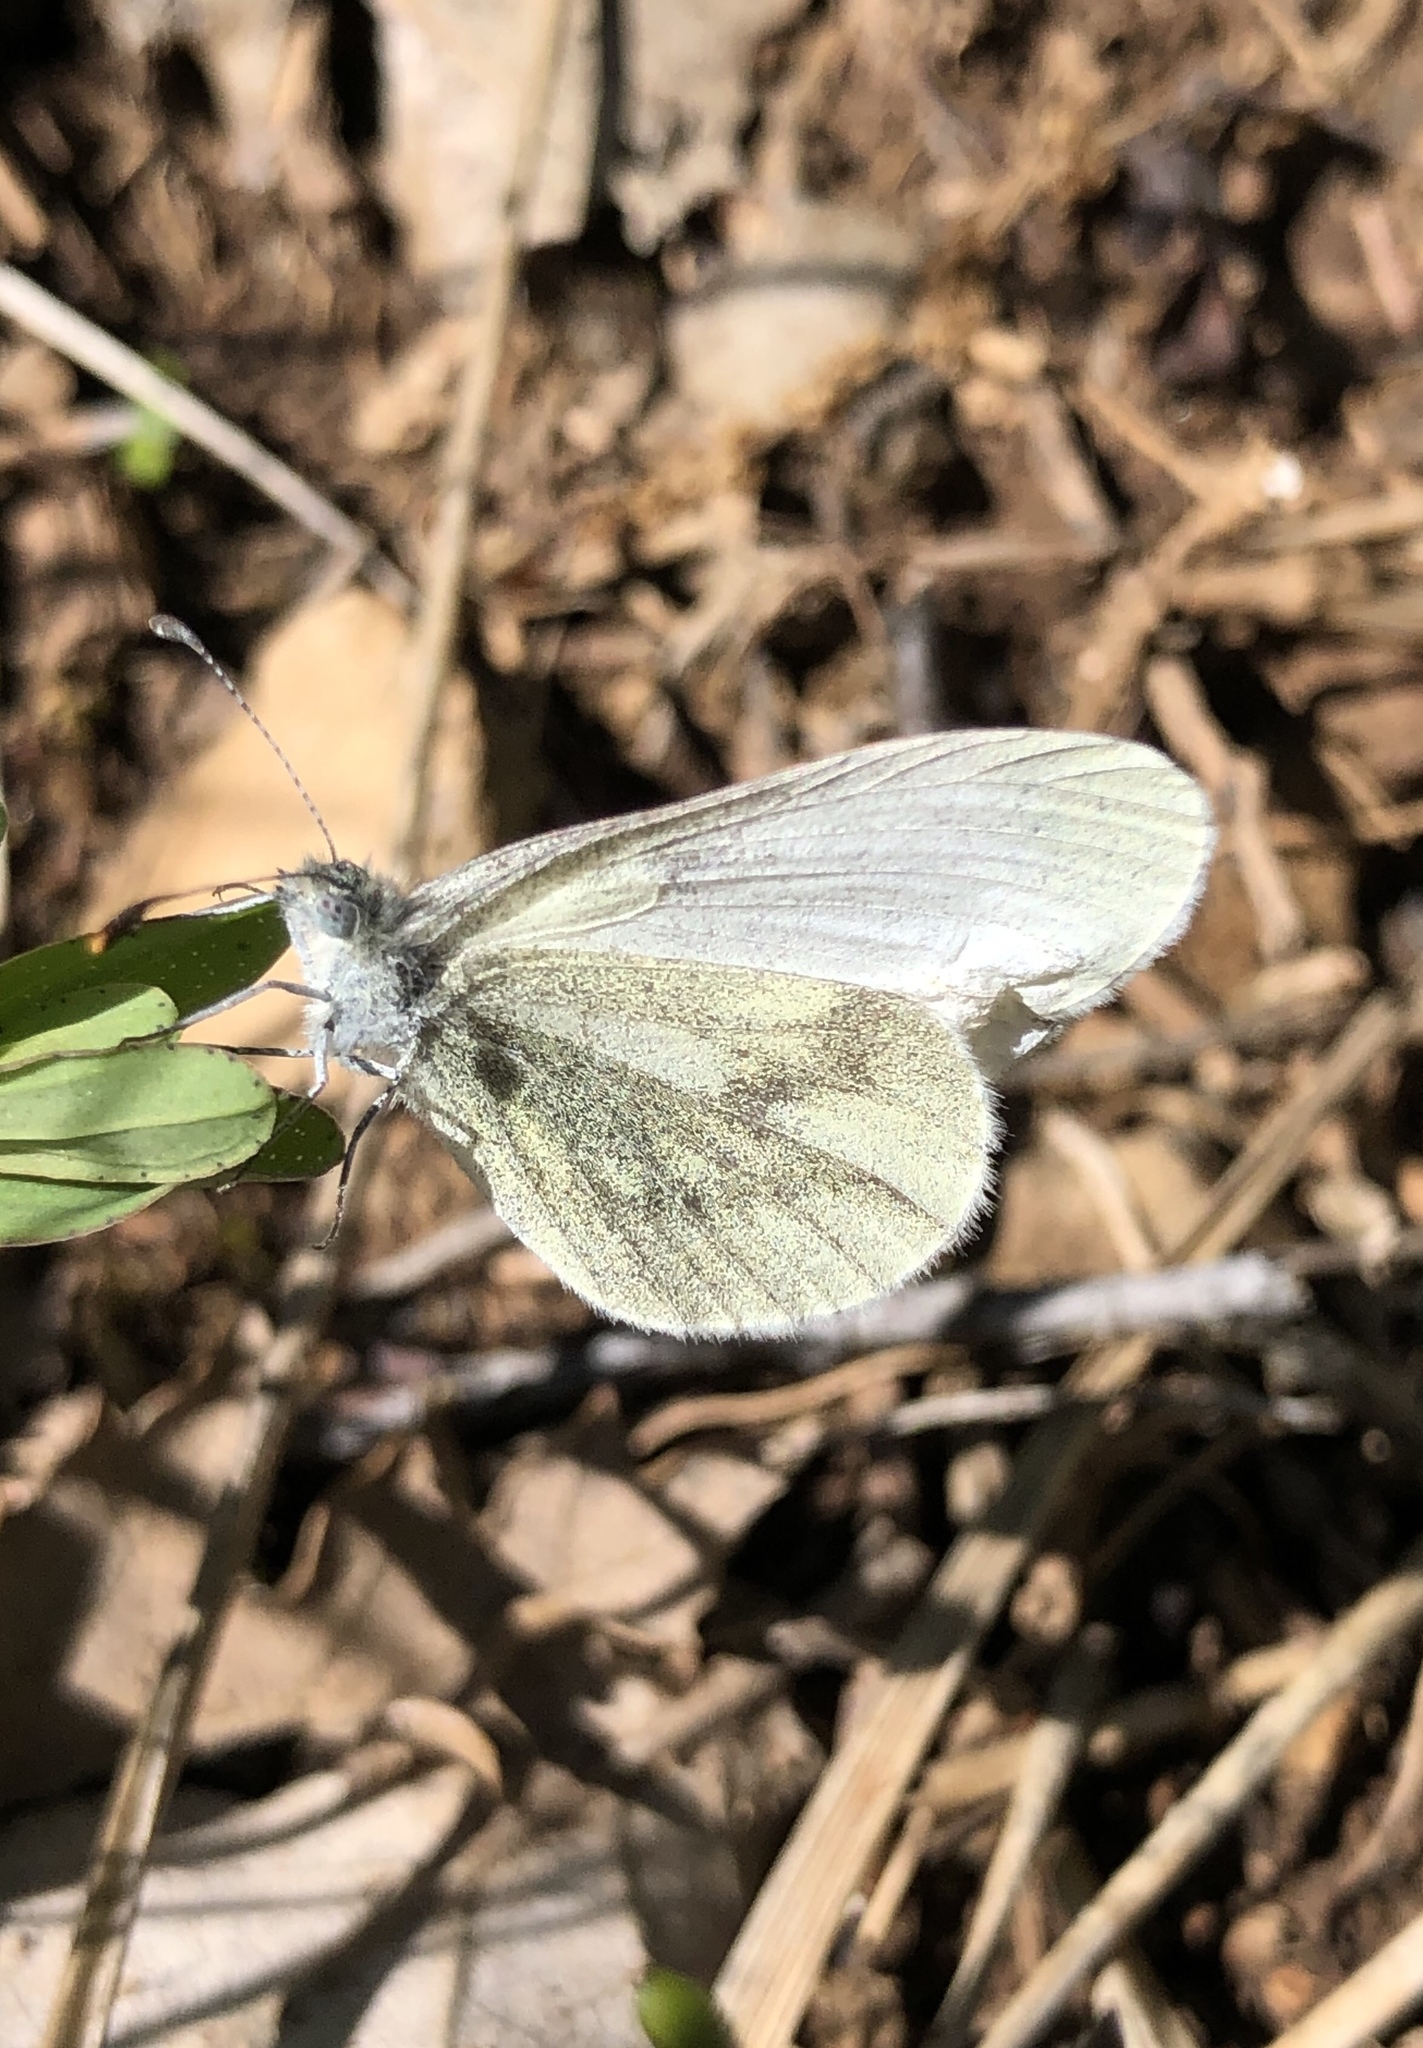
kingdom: Animalia
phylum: Arthropoda
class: Insecta
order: Lepidoptera
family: Pieridae
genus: Leptidea
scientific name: Leptidea
